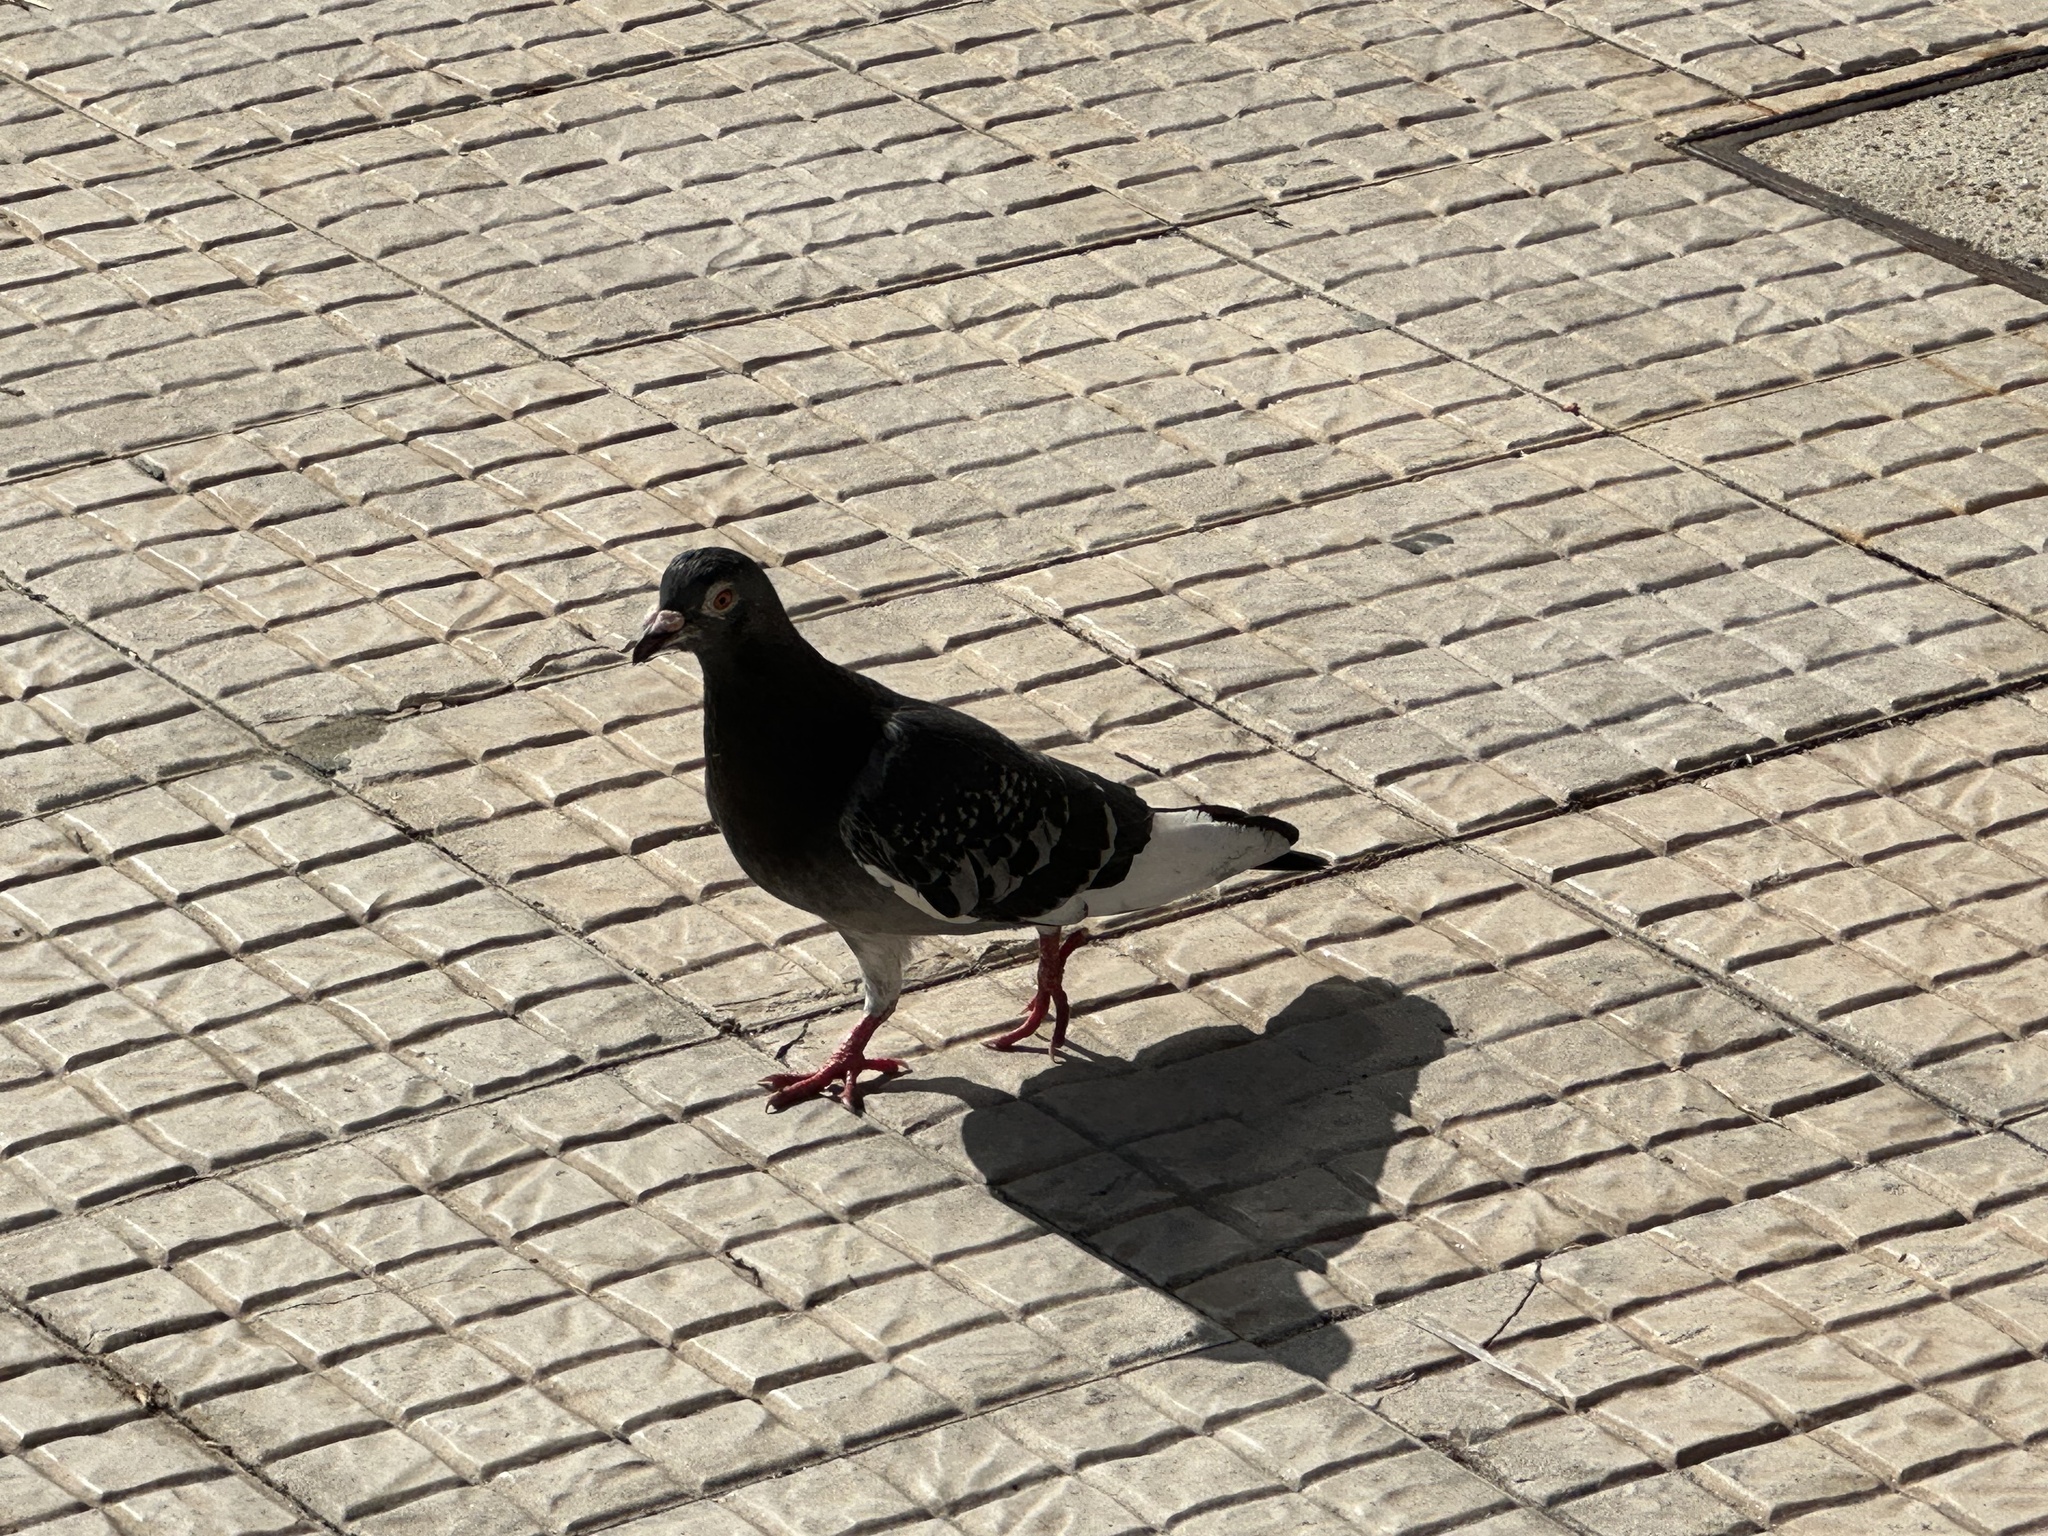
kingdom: Animalia
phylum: Chordata
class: Aves
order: Columbiformes
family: Columbidae
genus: Columba
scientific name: Columba livia
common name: Rock pigeon
